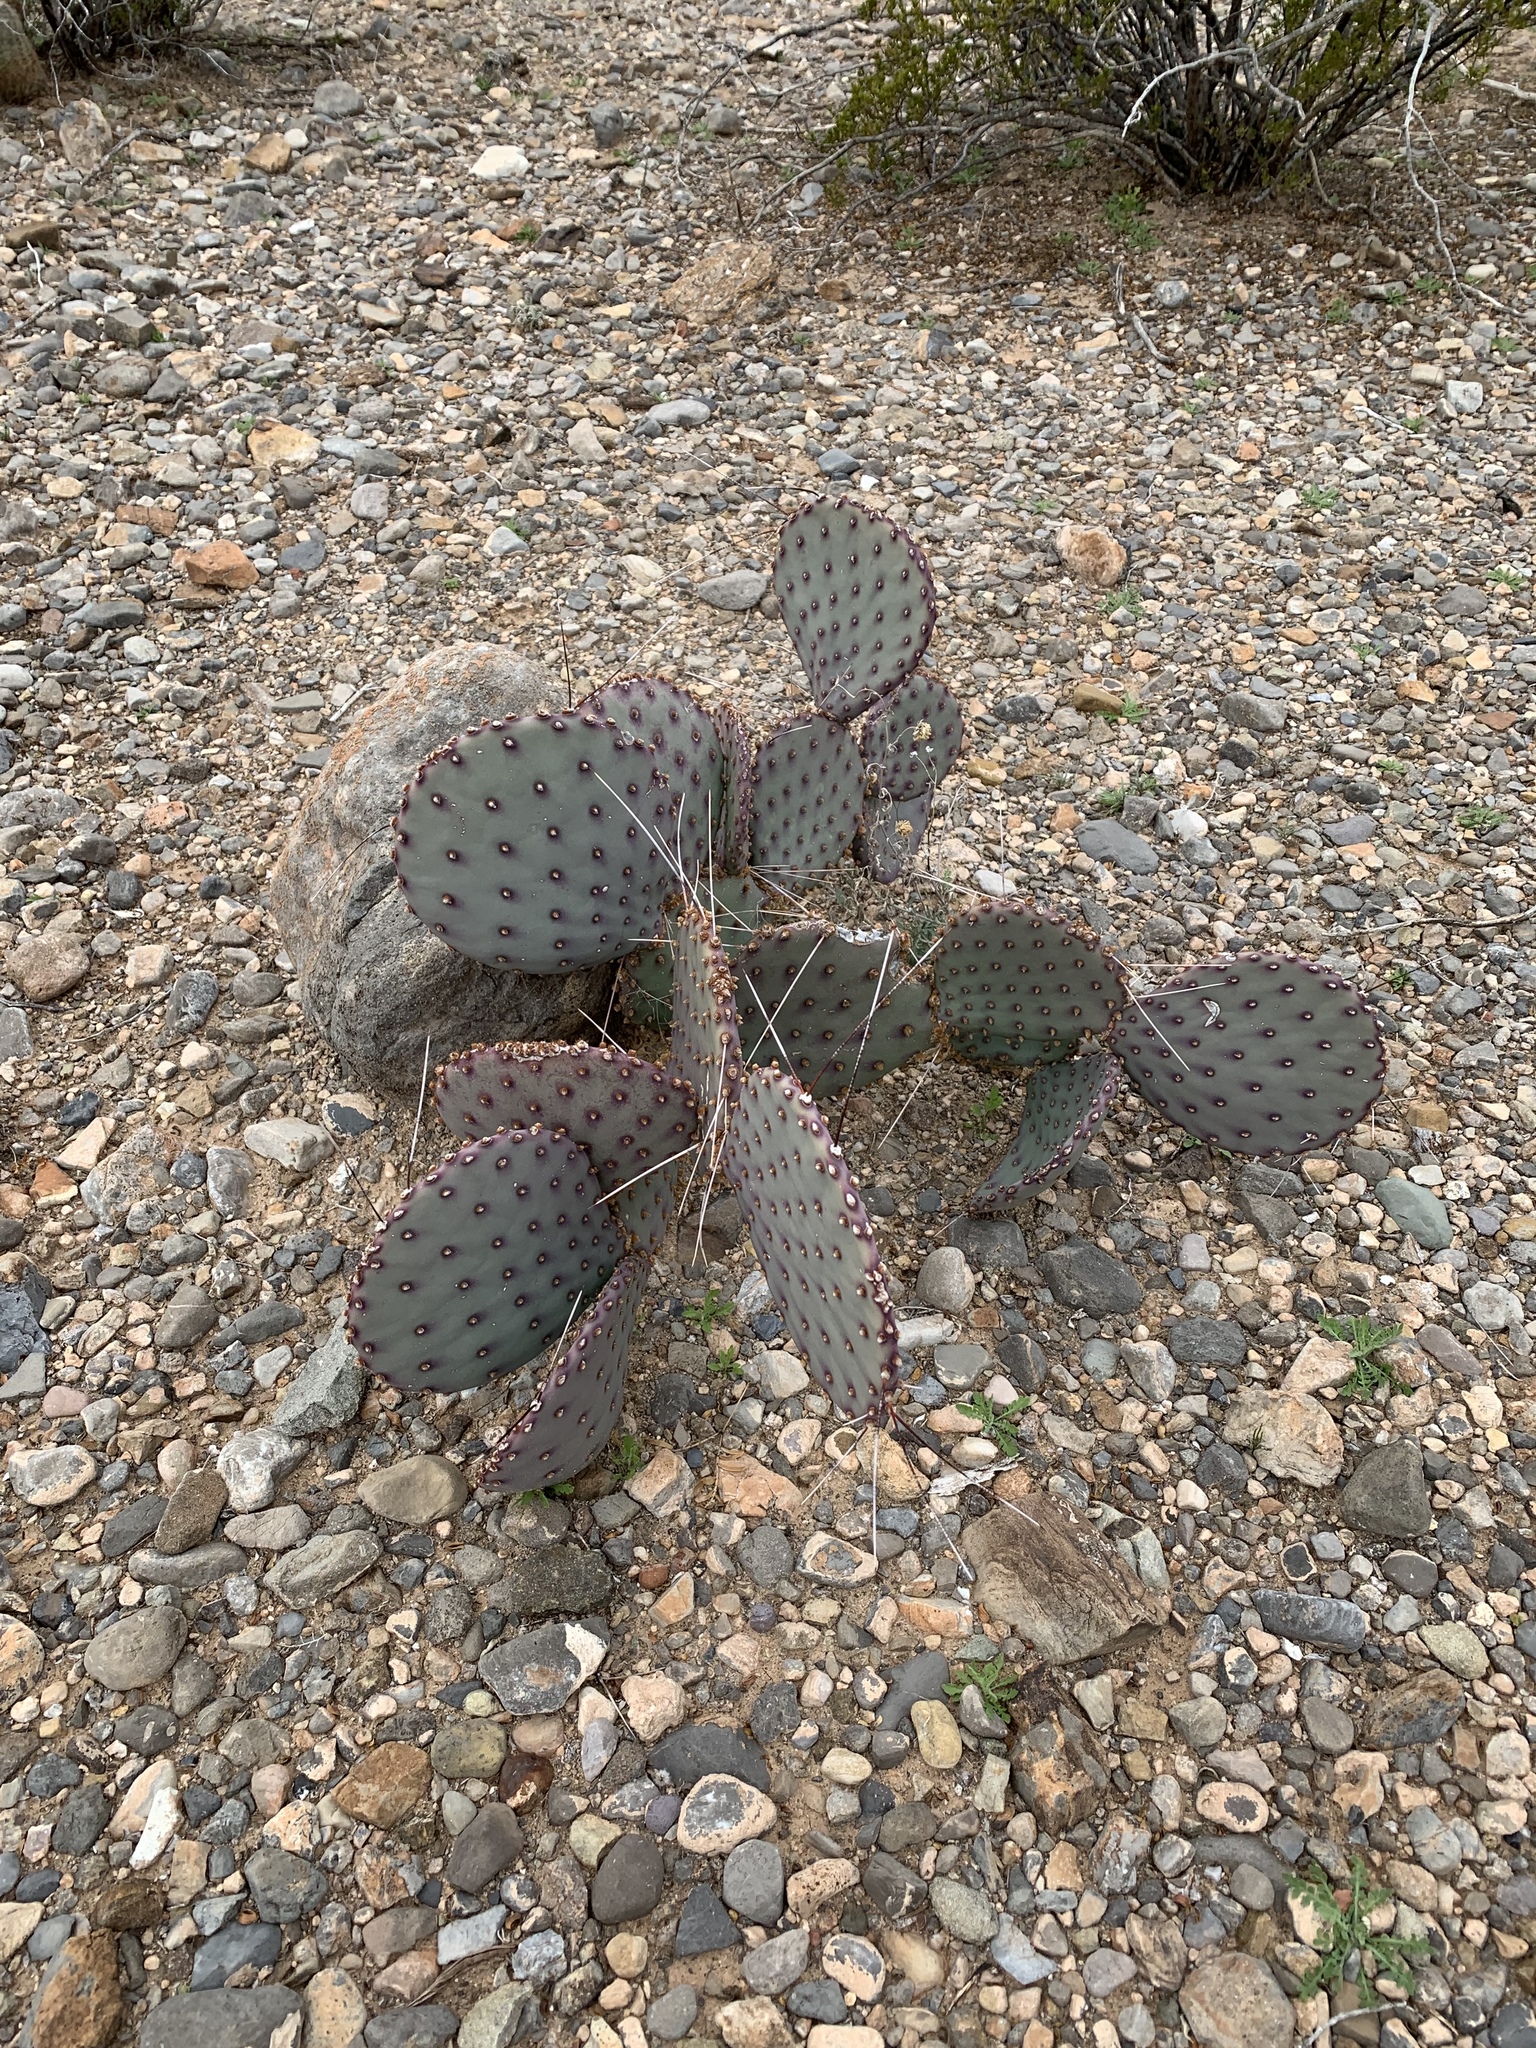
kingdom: Plantae
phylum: Tracheophyta
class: Magnoliopsida
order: Caryophyllales
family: Cactaceae
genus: Opuntia
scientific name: Opuntia macrocentra
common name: Purple prickly-pear
